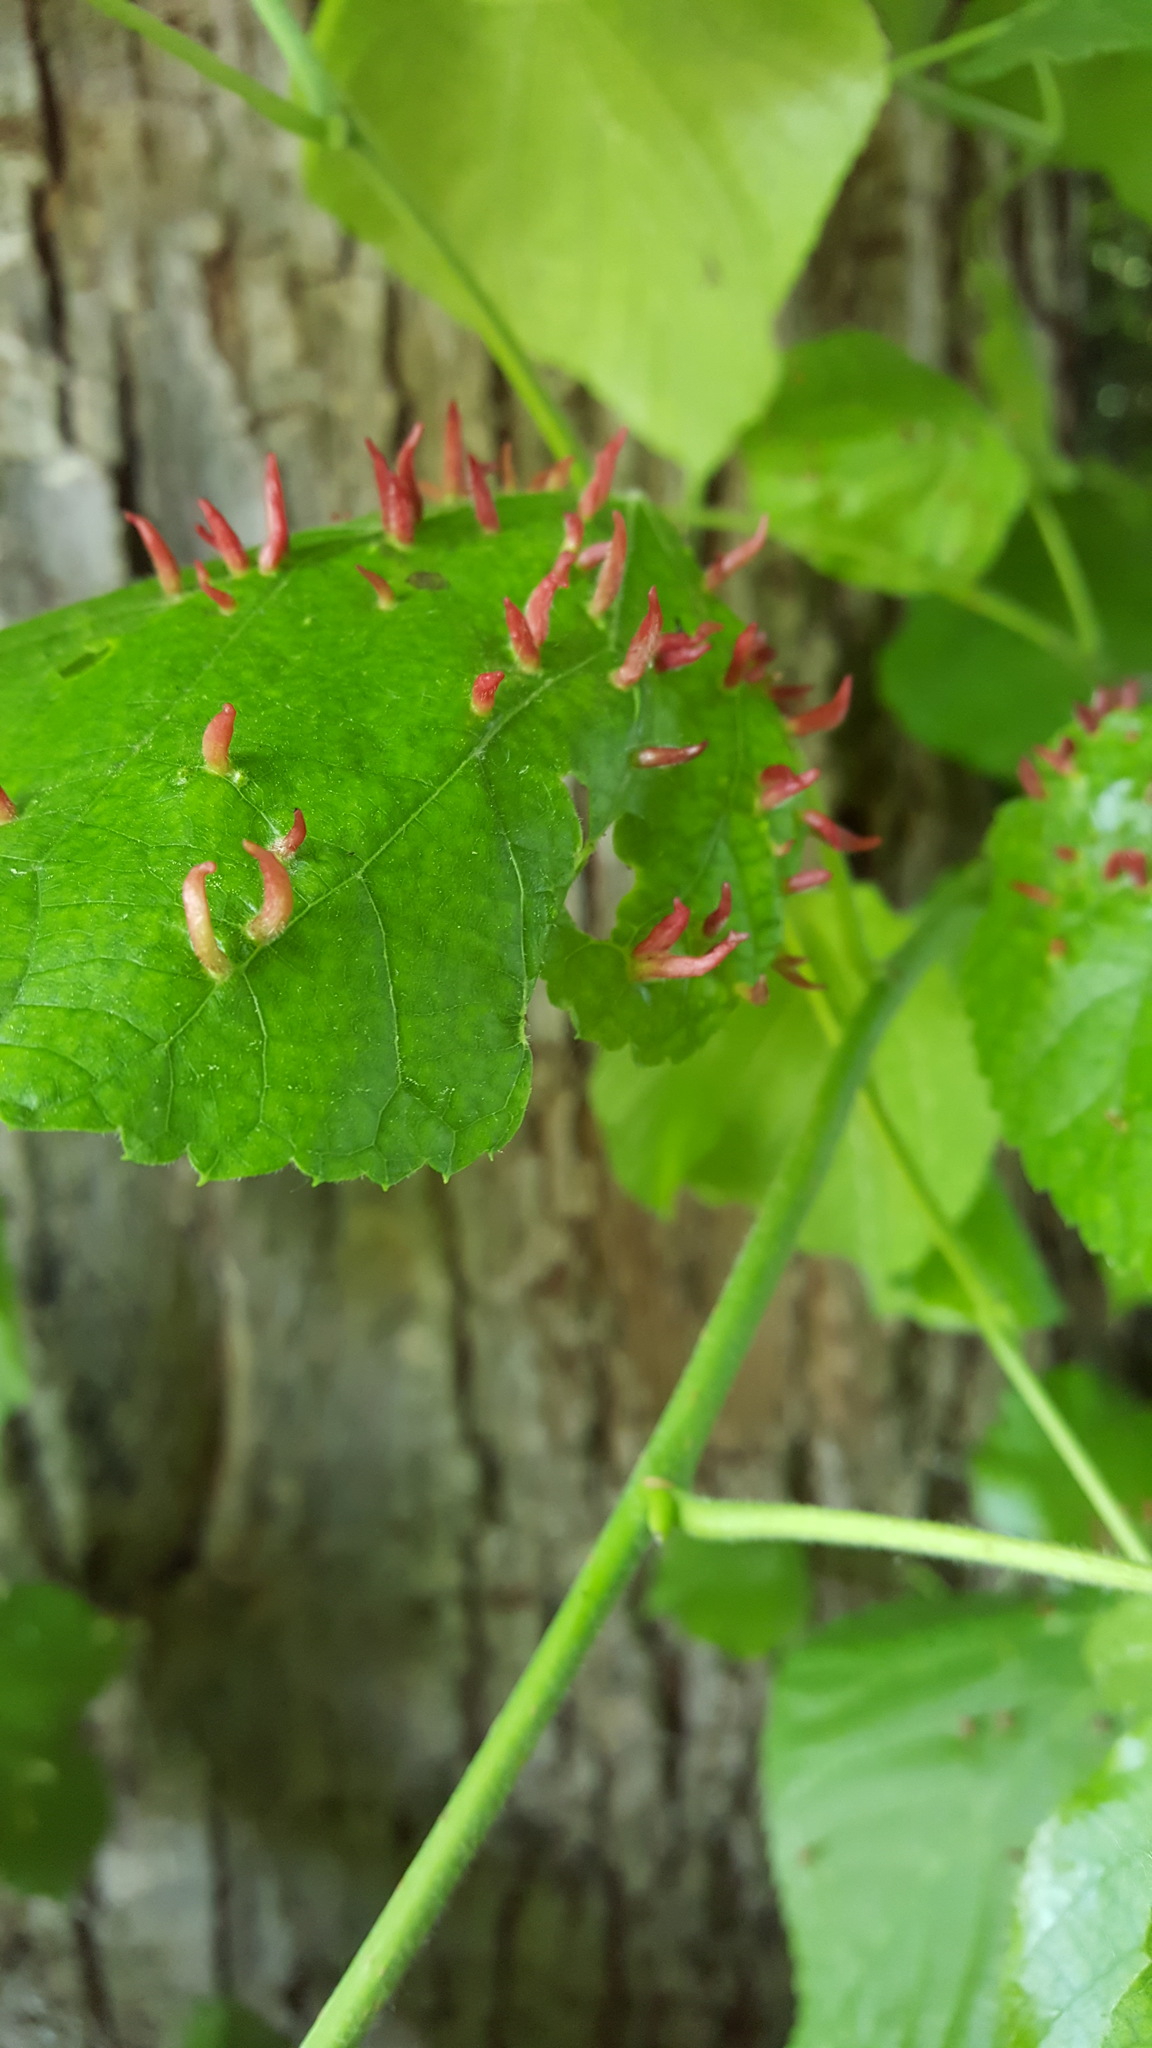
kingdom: Animalia
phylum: Arthropoda
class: Arachnida
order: Trombidiformes
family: Eriophyidae
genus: Eriophyes
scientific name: Eriophyes tiliae
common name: Red nail gall mite
